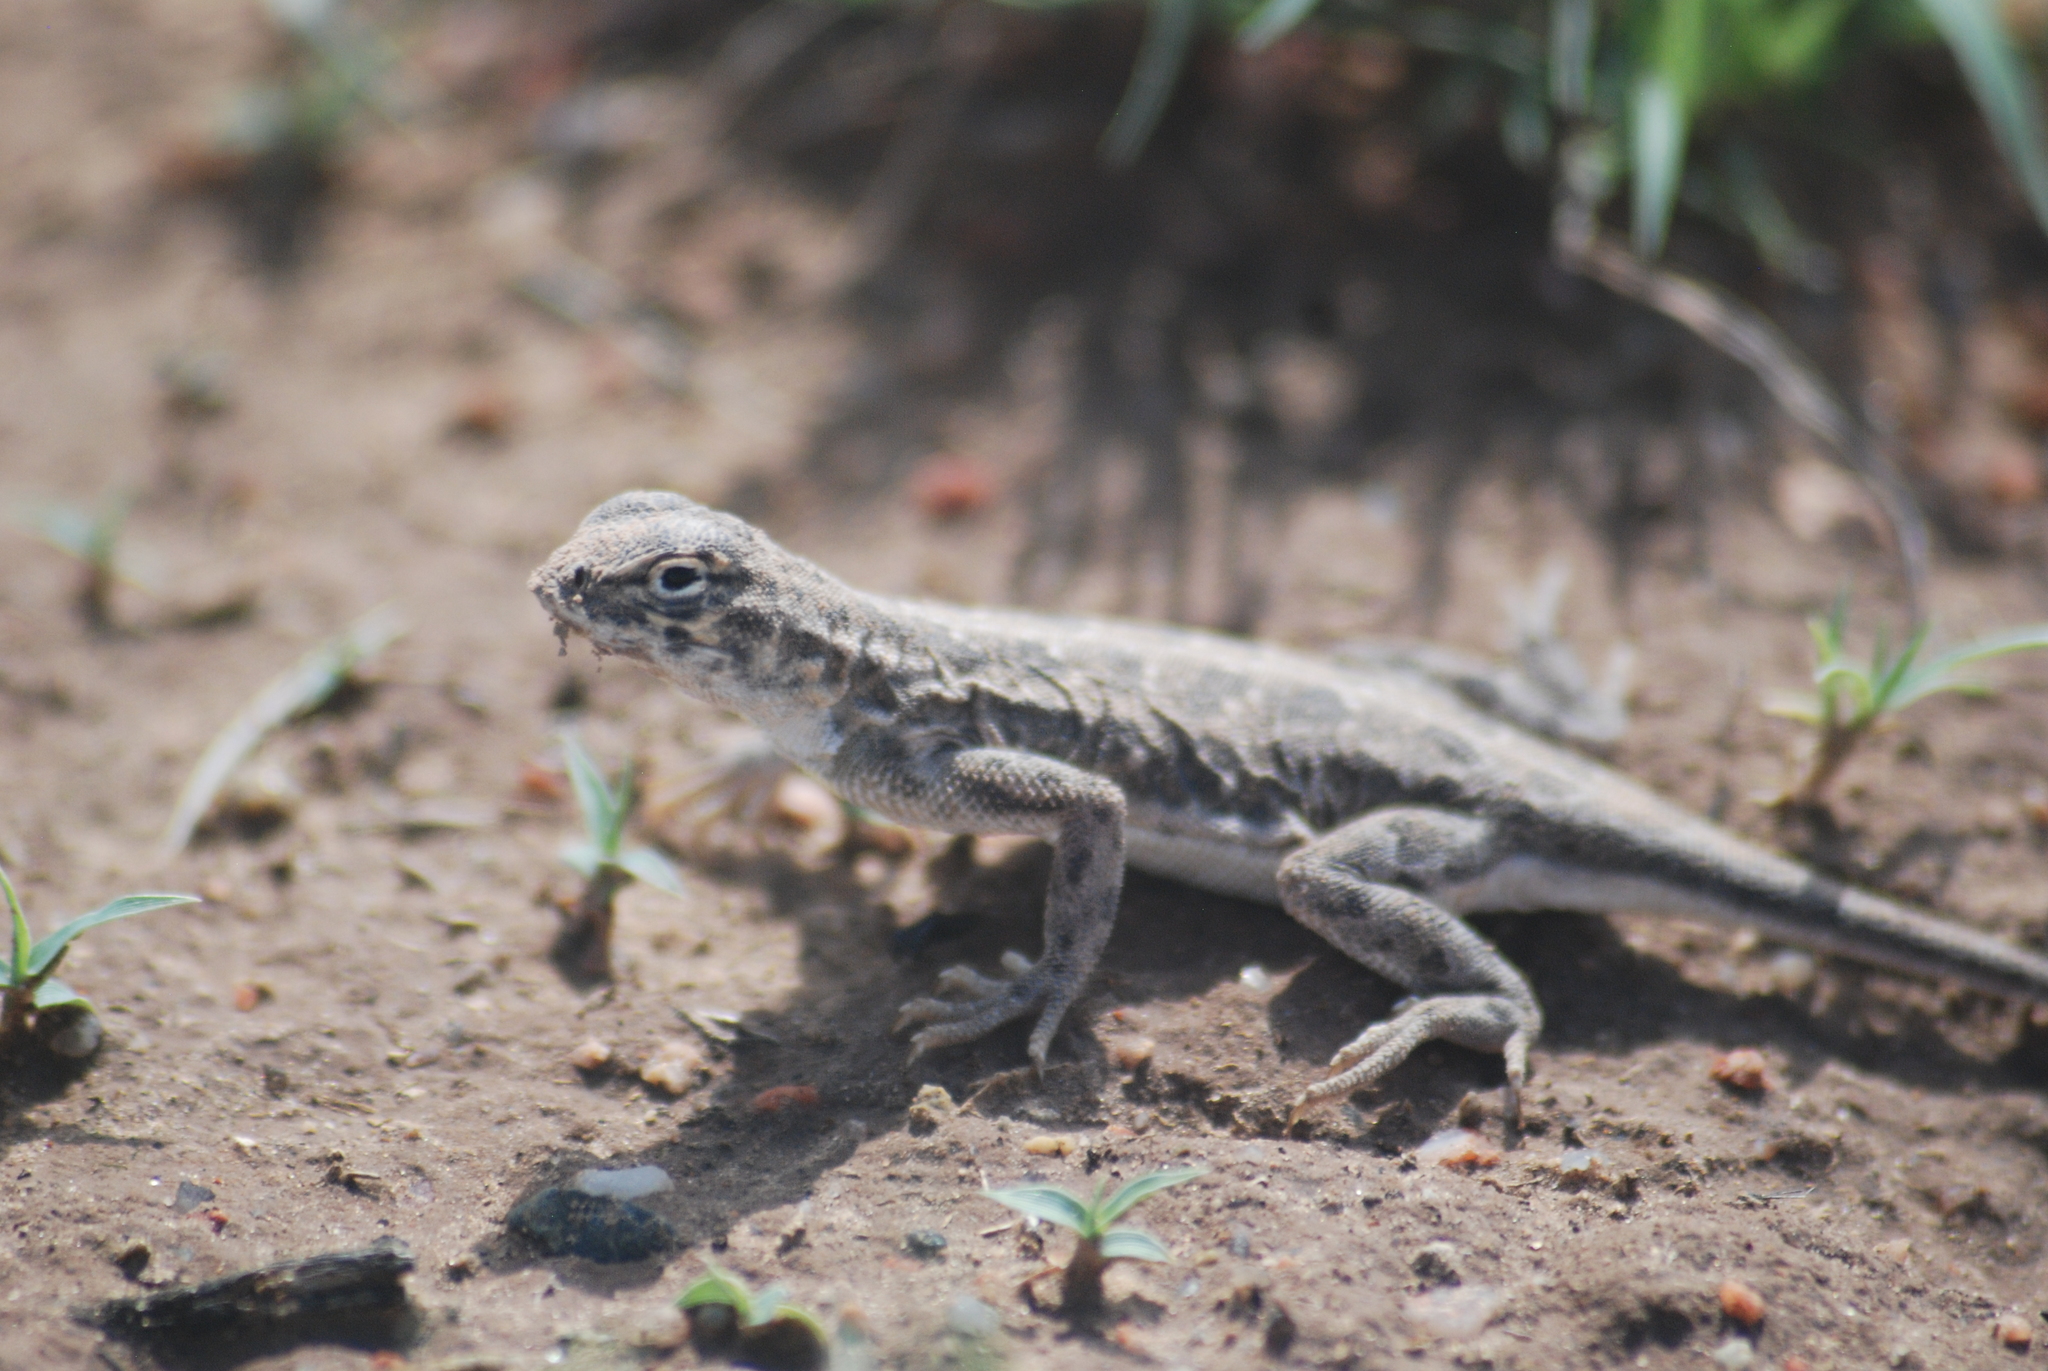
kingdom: Animalia
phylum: Chordata
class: Squamata
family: Phrynosomatidae
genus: Holbrookia
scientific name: Holbrookia maculata
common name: Lesser earless lizard
